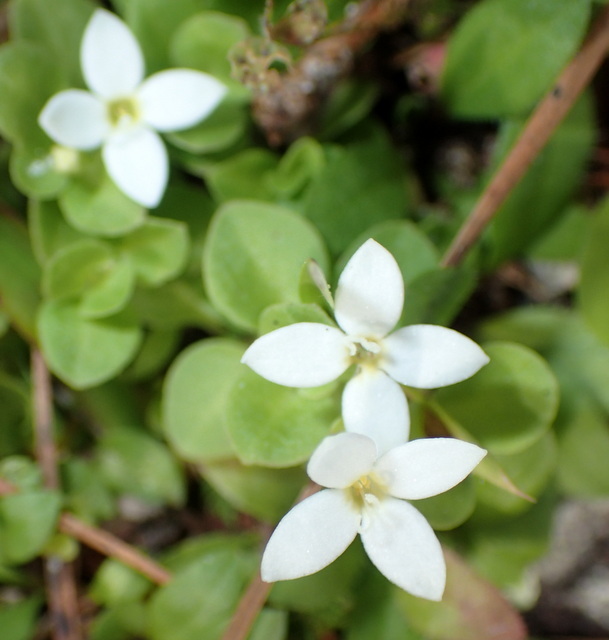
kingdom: Plantae
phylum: Tracheophyta
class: Magnoliopsida
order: Gentianales
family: Rubiaceae
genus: Houstonia
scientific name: Houstonia procumbens
